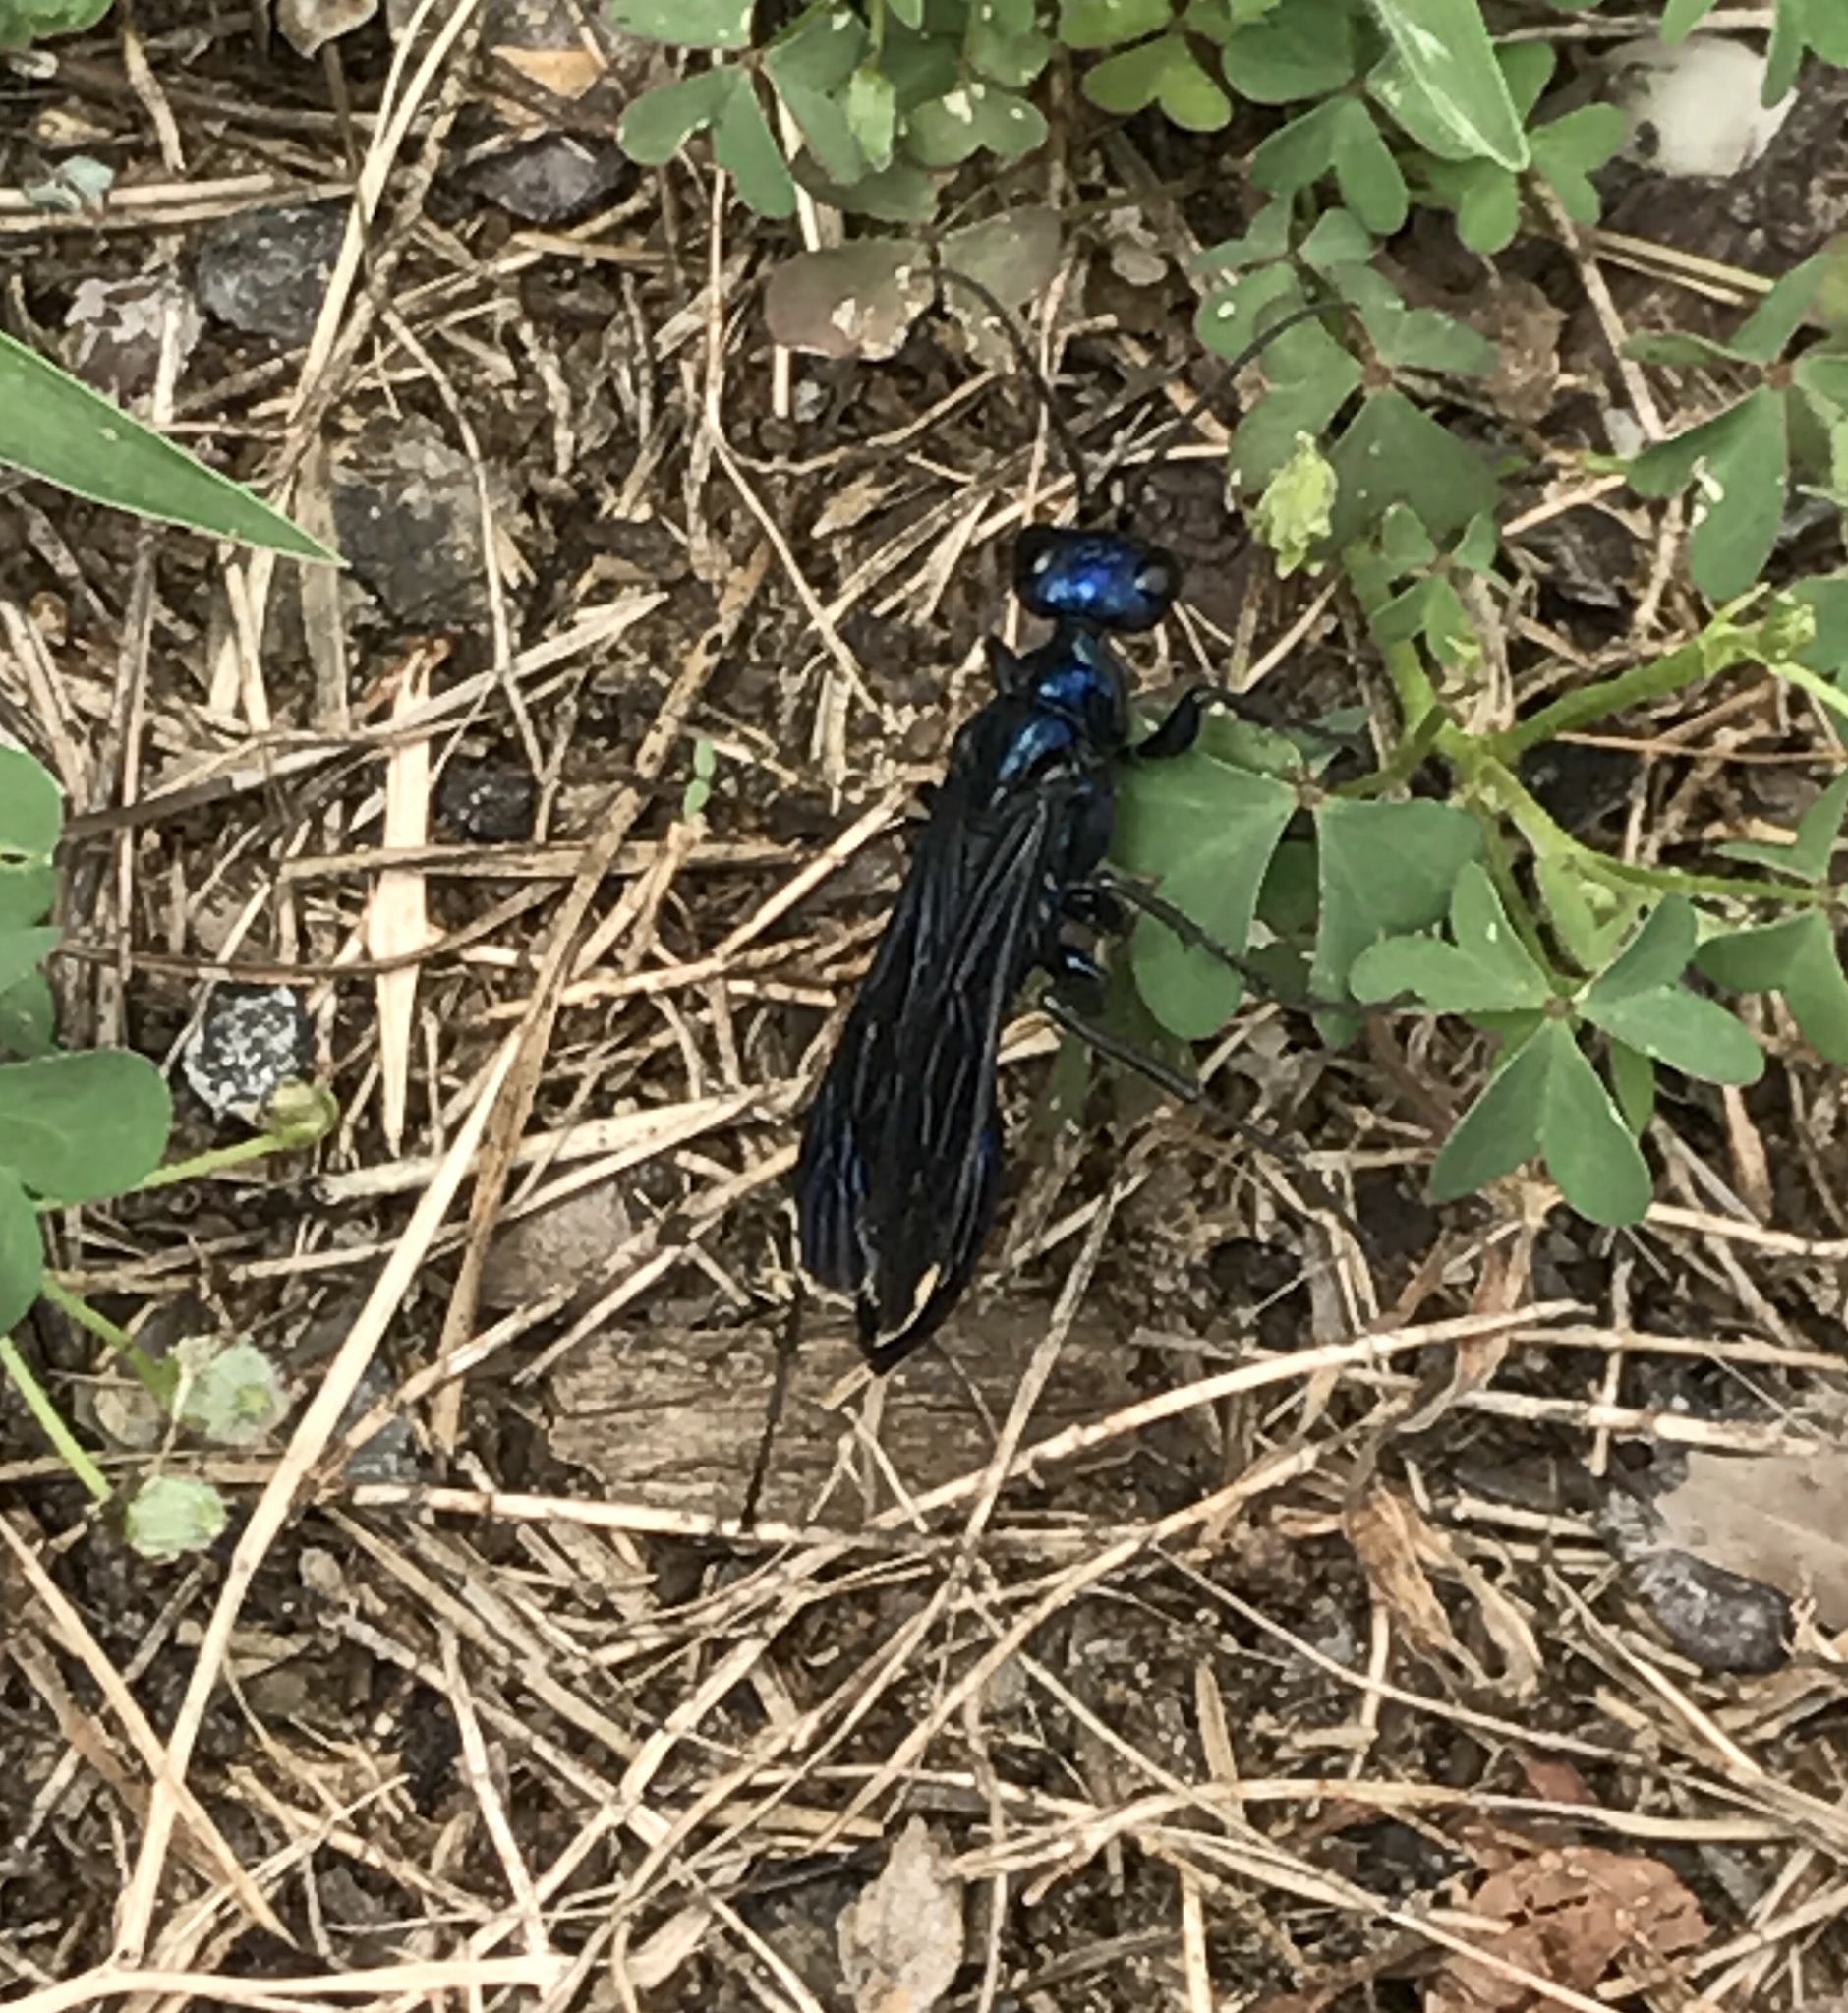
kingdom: Animalia
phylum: Arthropoda
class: Insecta
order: Hymenoptera
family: Sphecidae
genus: Chlorion
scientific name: Chlorion aerarium
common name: Steel-blue cricket hunter
